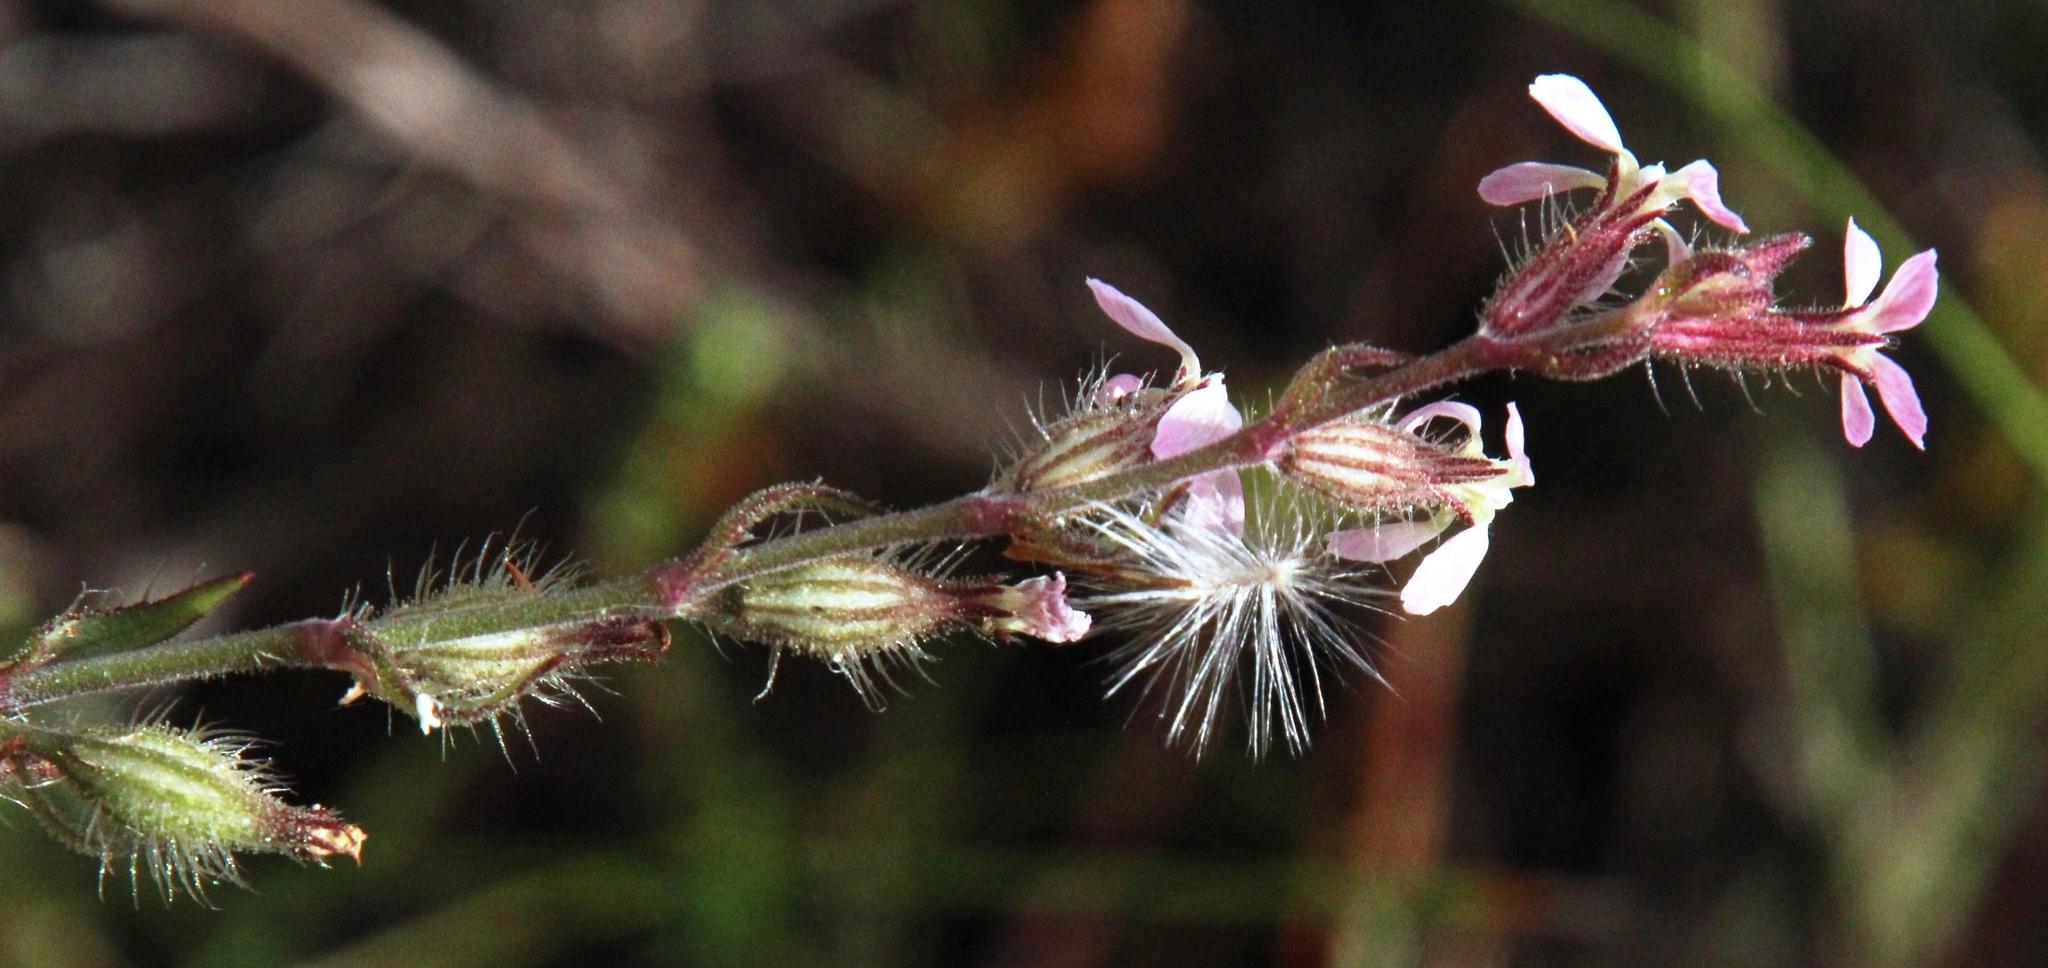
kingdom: Plantae
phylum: Tracheophyta
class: Magnoliopsida
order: Caryophyllales
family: Caryophyllaceae
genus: Silene
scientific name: Silene gallica
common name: Small-flowered catchfly
